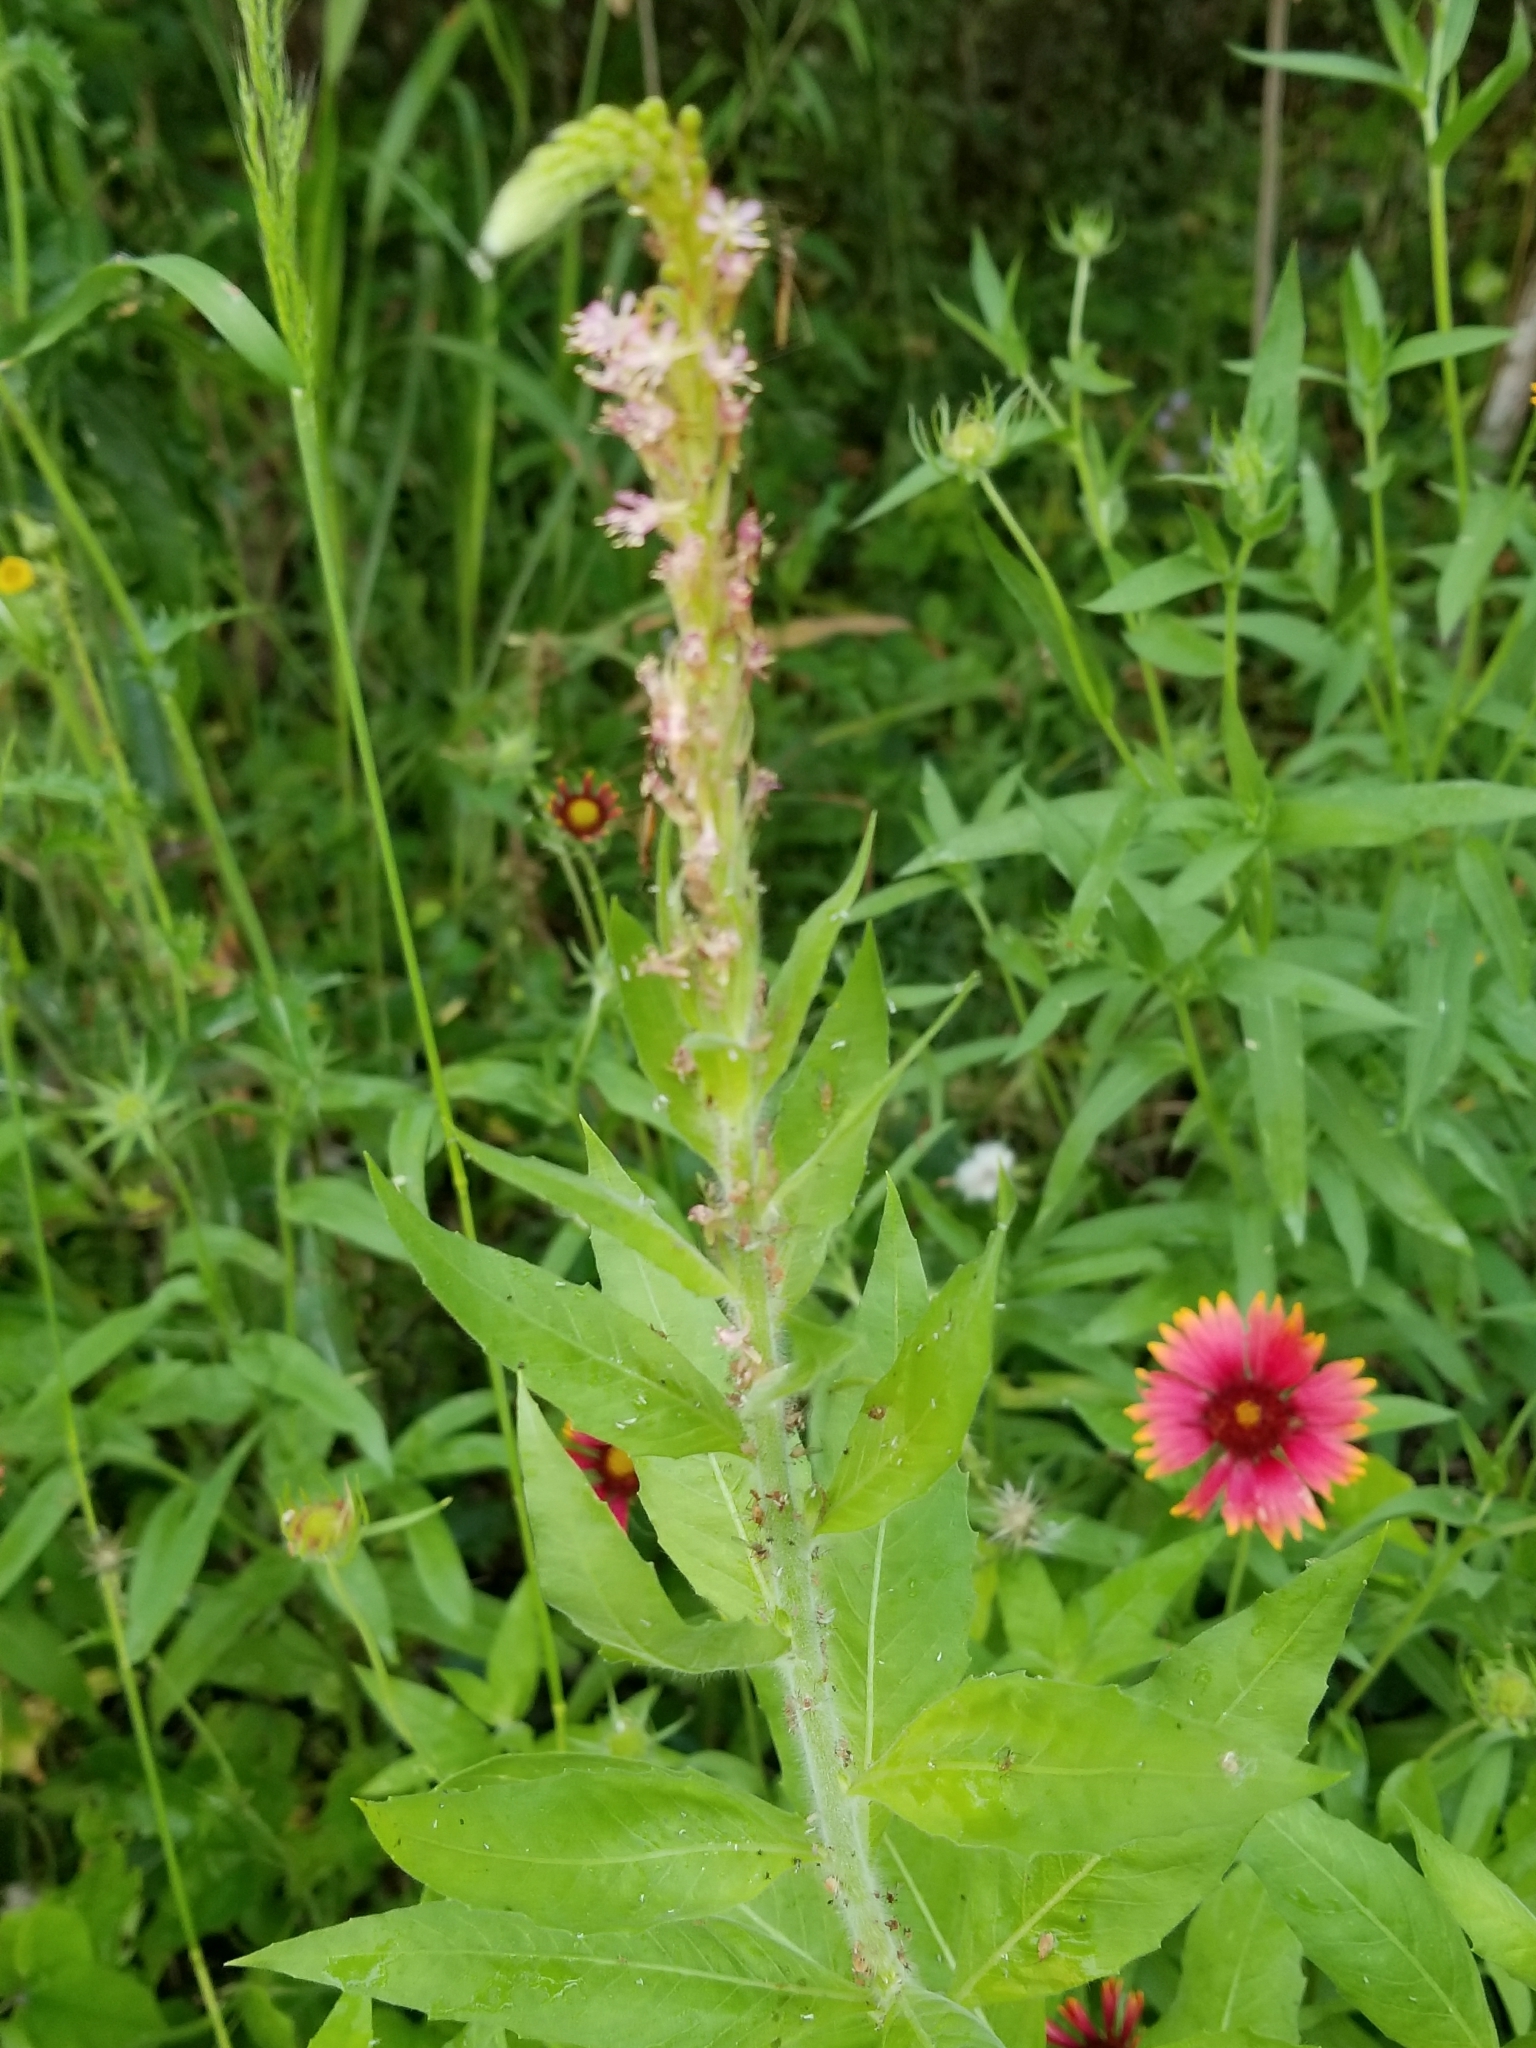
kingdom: Plantae
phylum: Tracheophyta
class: Magnoliopsida
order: Myrtales
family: Onagraceae
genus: Oenothera
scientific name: Oenothera curtiflora
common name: Velvetweed
